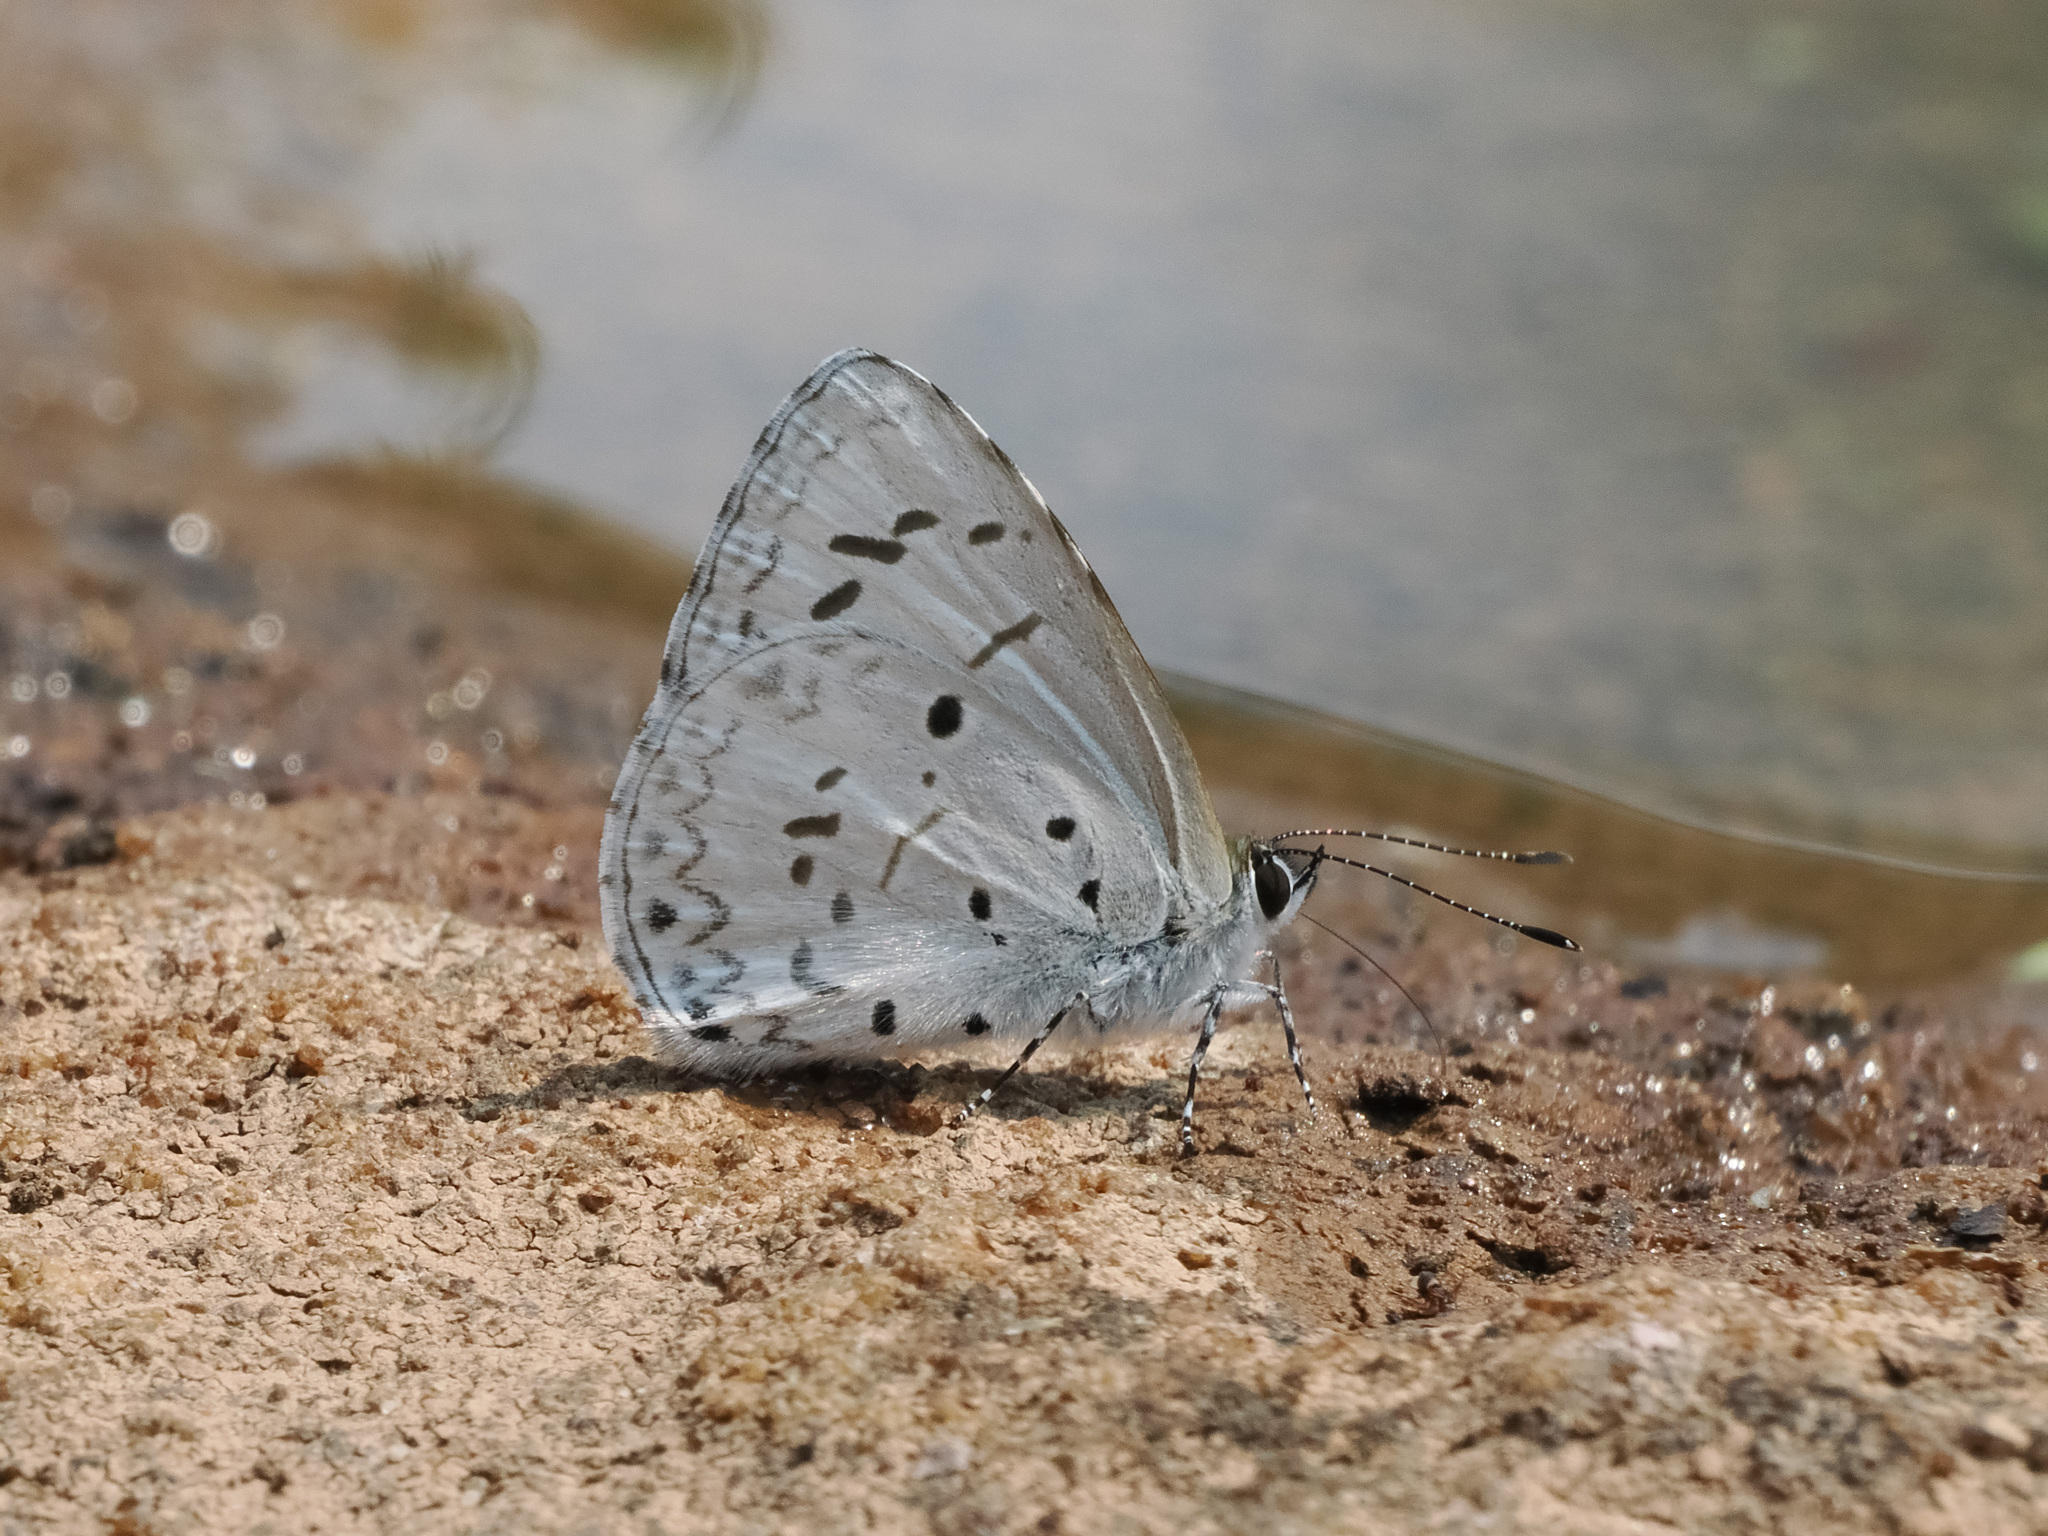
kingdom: Animalia
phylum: Arthropoda
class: Insecta
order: Lepidoptera
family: Lycaenidae
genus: Acytolepis
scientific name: Acytolepis puspa
